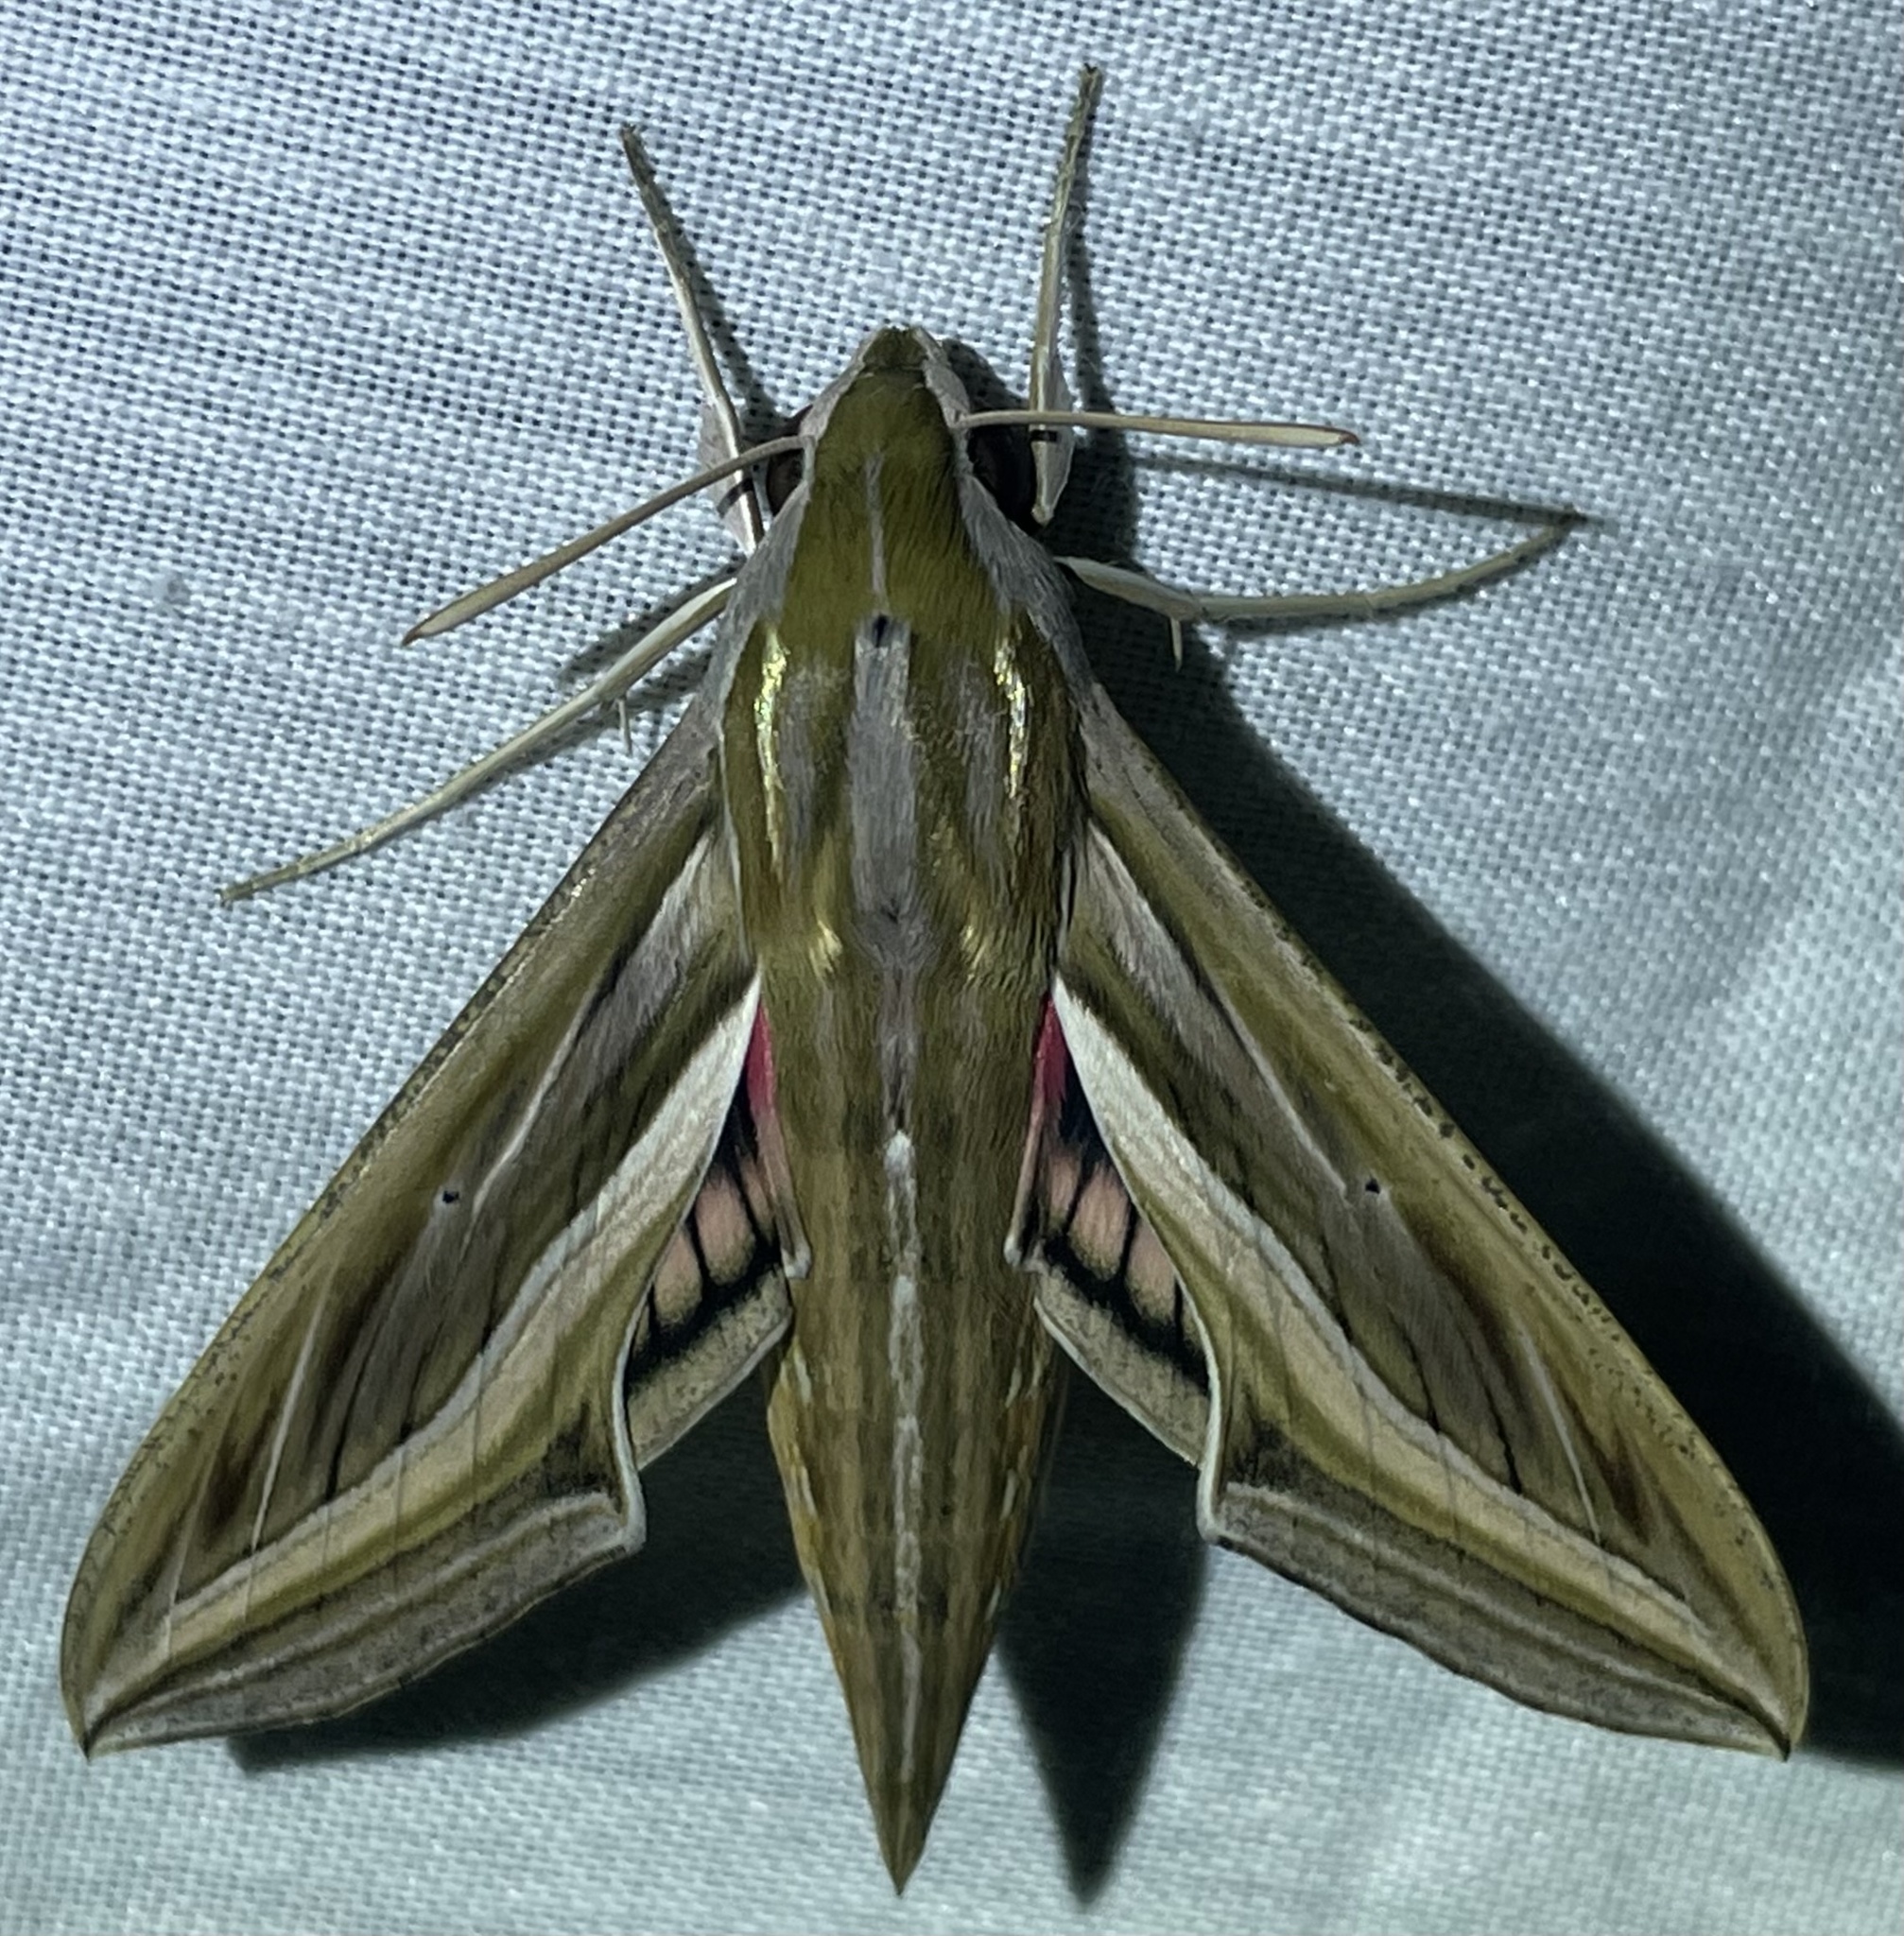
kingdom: Animalia
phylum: Arthropoda
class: Insecta
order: Lepidoptera
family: Sphingidae
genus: Hippotion
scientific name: Hippotion celerio
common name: Silver-striped hawk-moth
